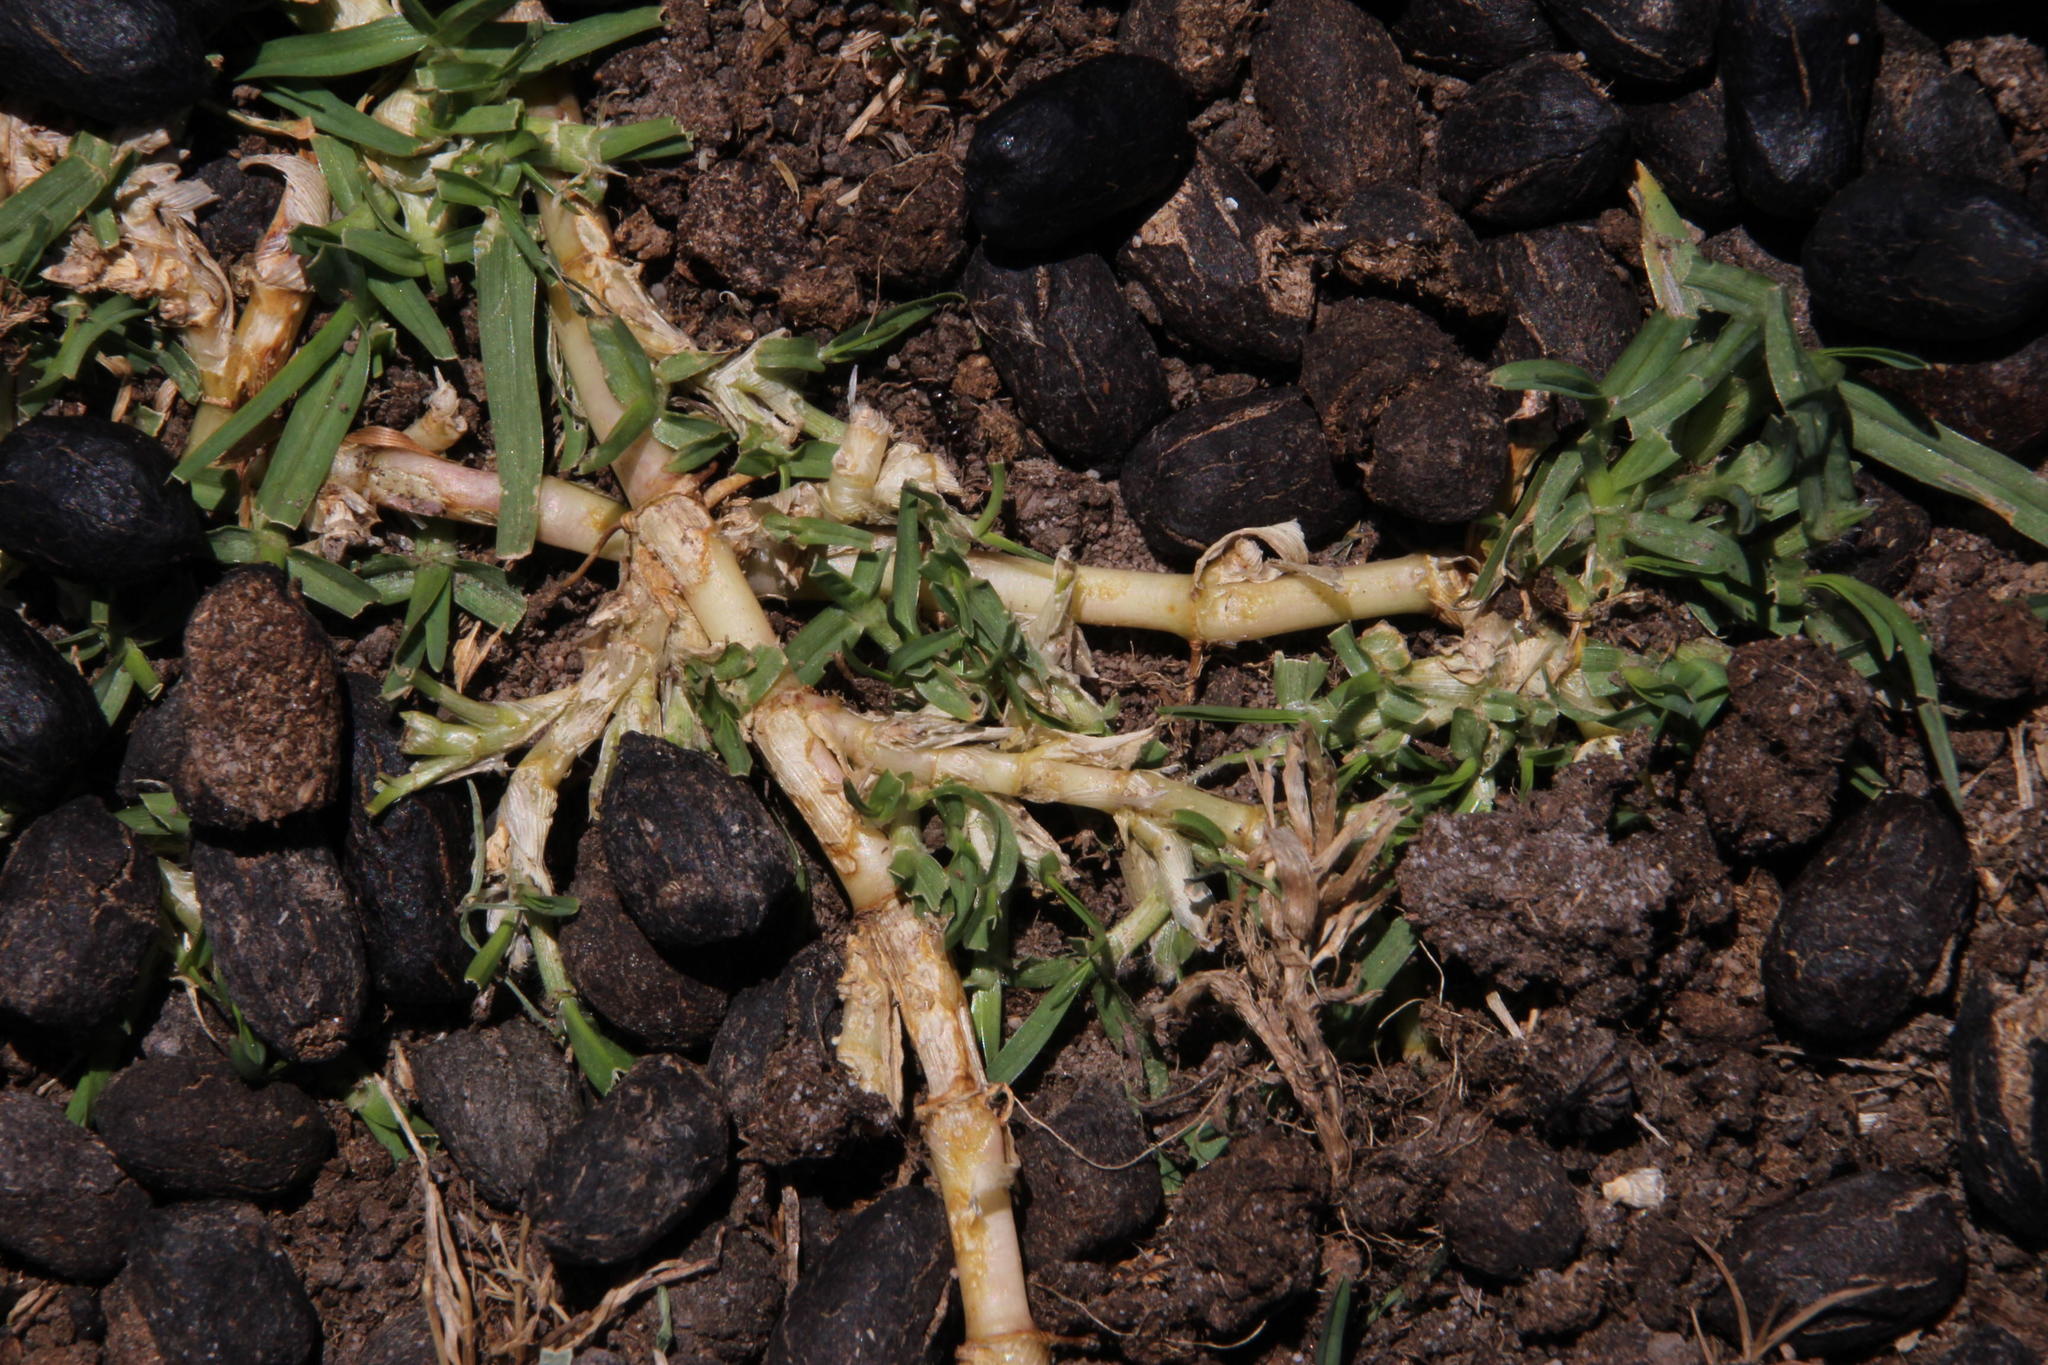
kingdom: Plantae
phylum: Tracheophyta
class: Liliopsida
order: Poales
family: Poaceae
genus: Cenchrus
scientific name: Cenchrus clandestinus
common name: Kikuyugrass
